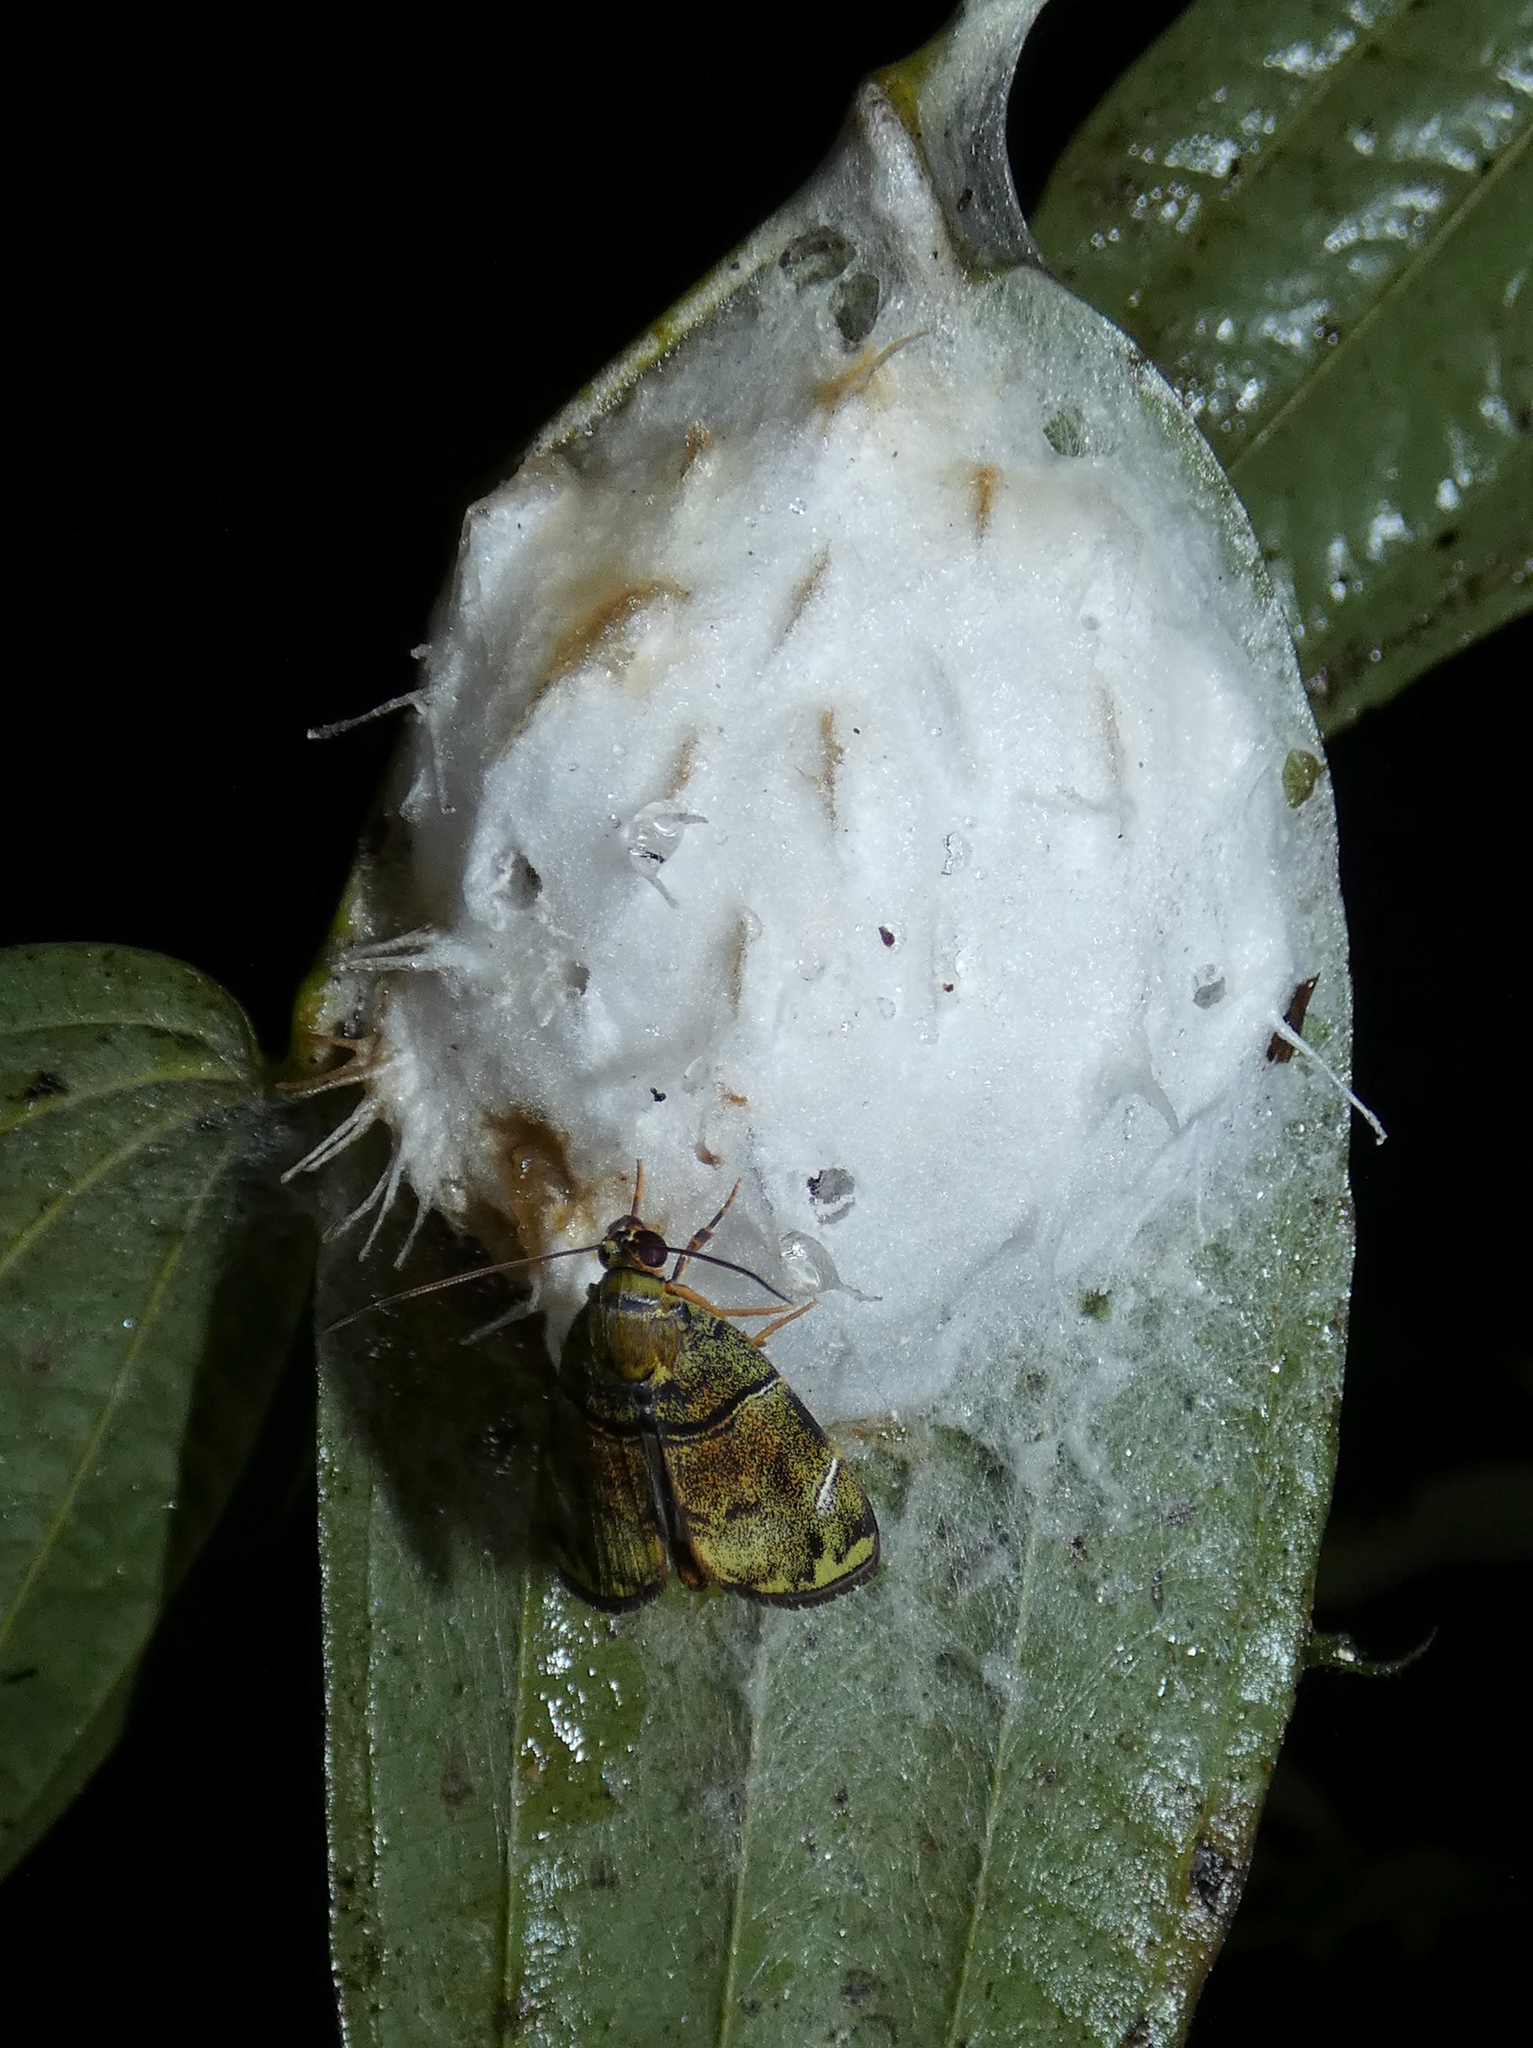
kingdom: Animalia
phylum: Arthropoda
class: Insecta
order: Lepidoptera
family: Nolidae
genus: Labanda
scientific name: Labanda ceylusalis
